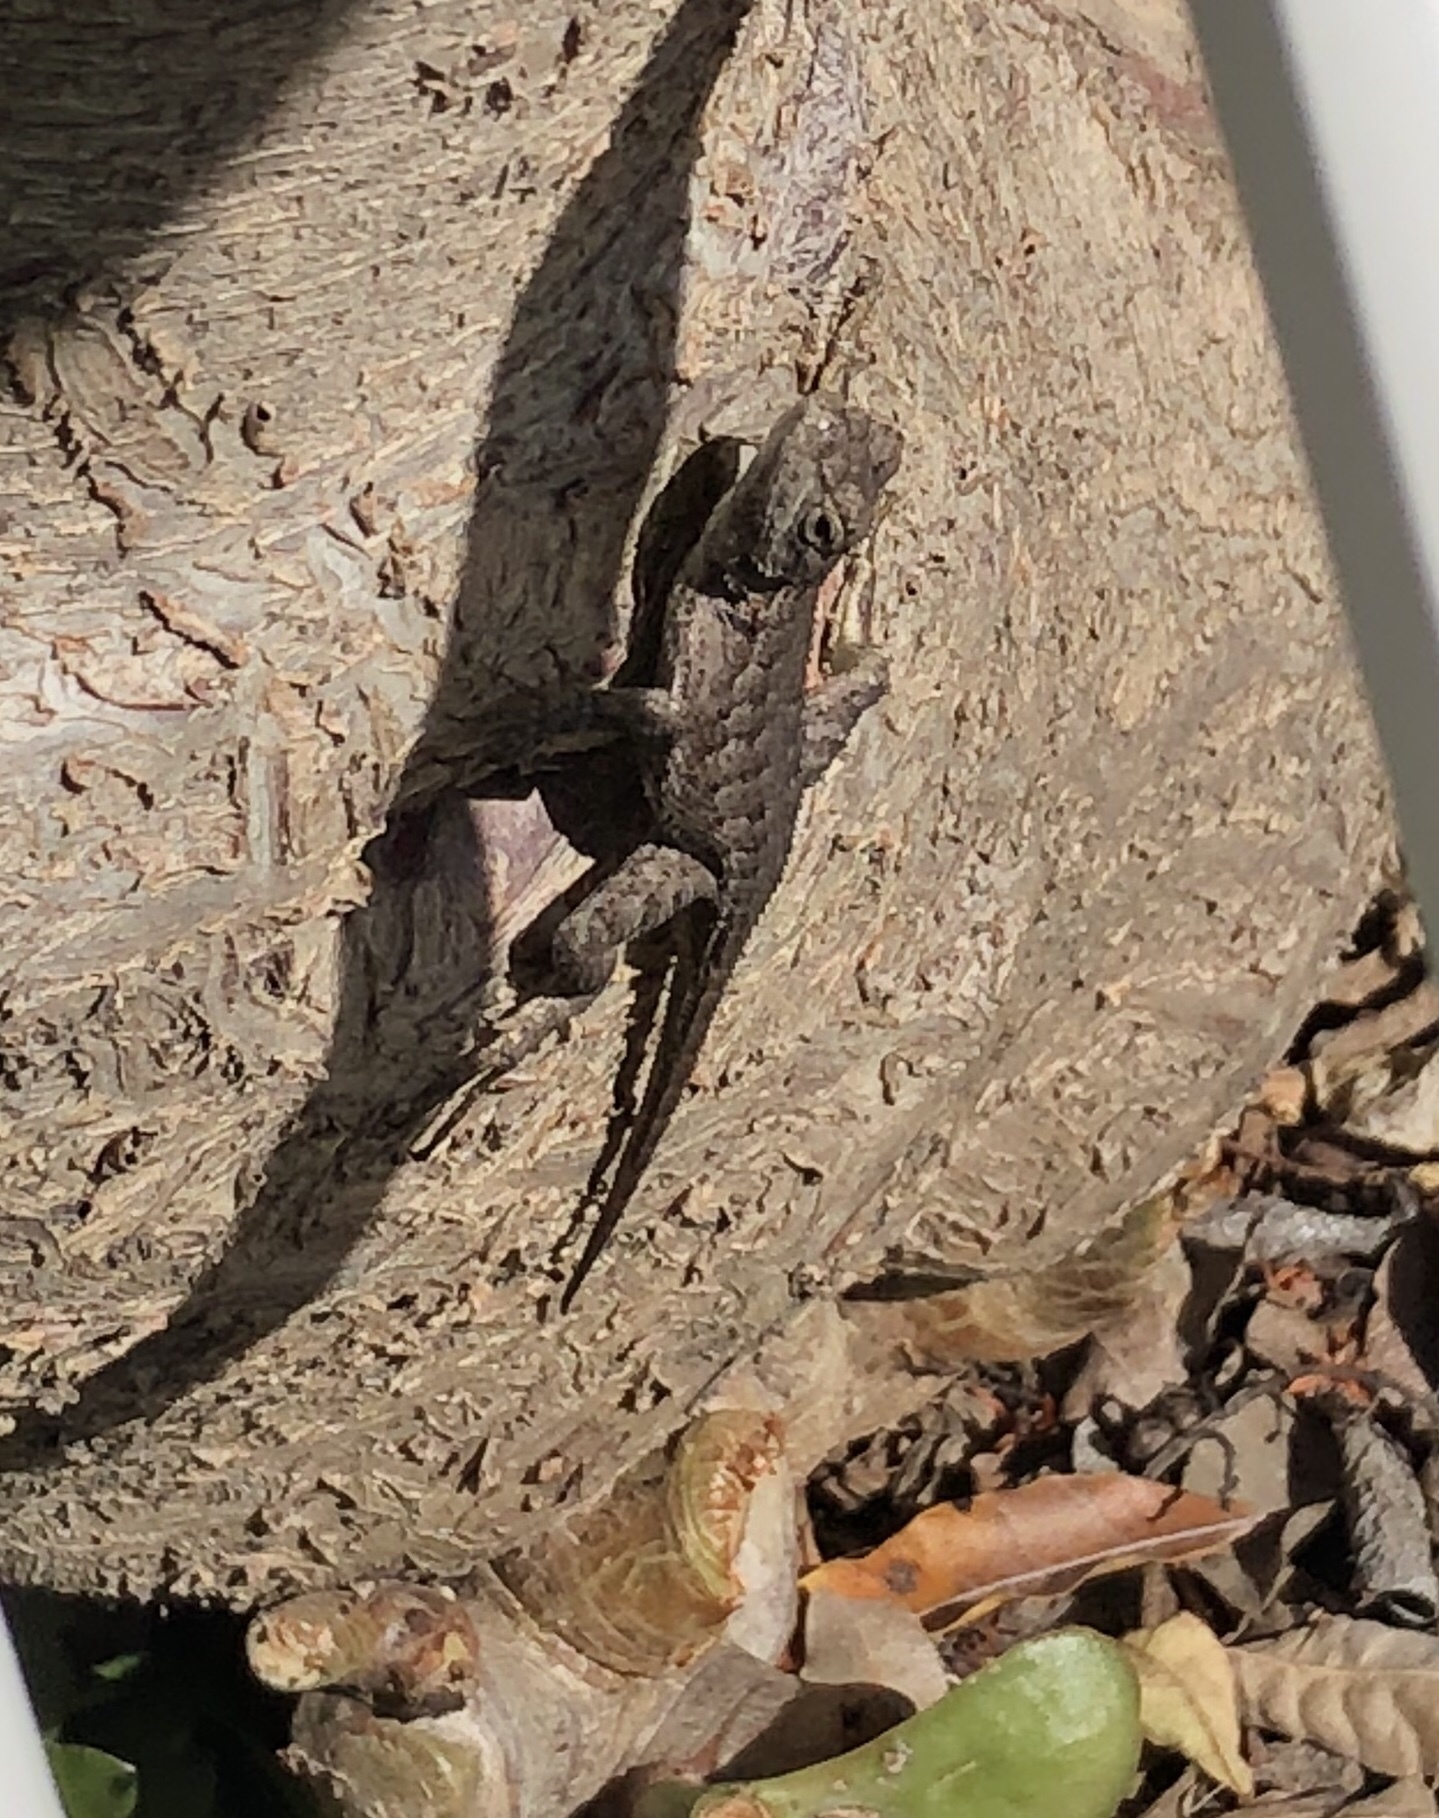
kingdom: Animalia
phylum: Chordata
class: Squamata
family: Phrynosomatidae
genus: Sceloporus
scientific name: Sceloporus occidentalis
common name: Western fence lizard
